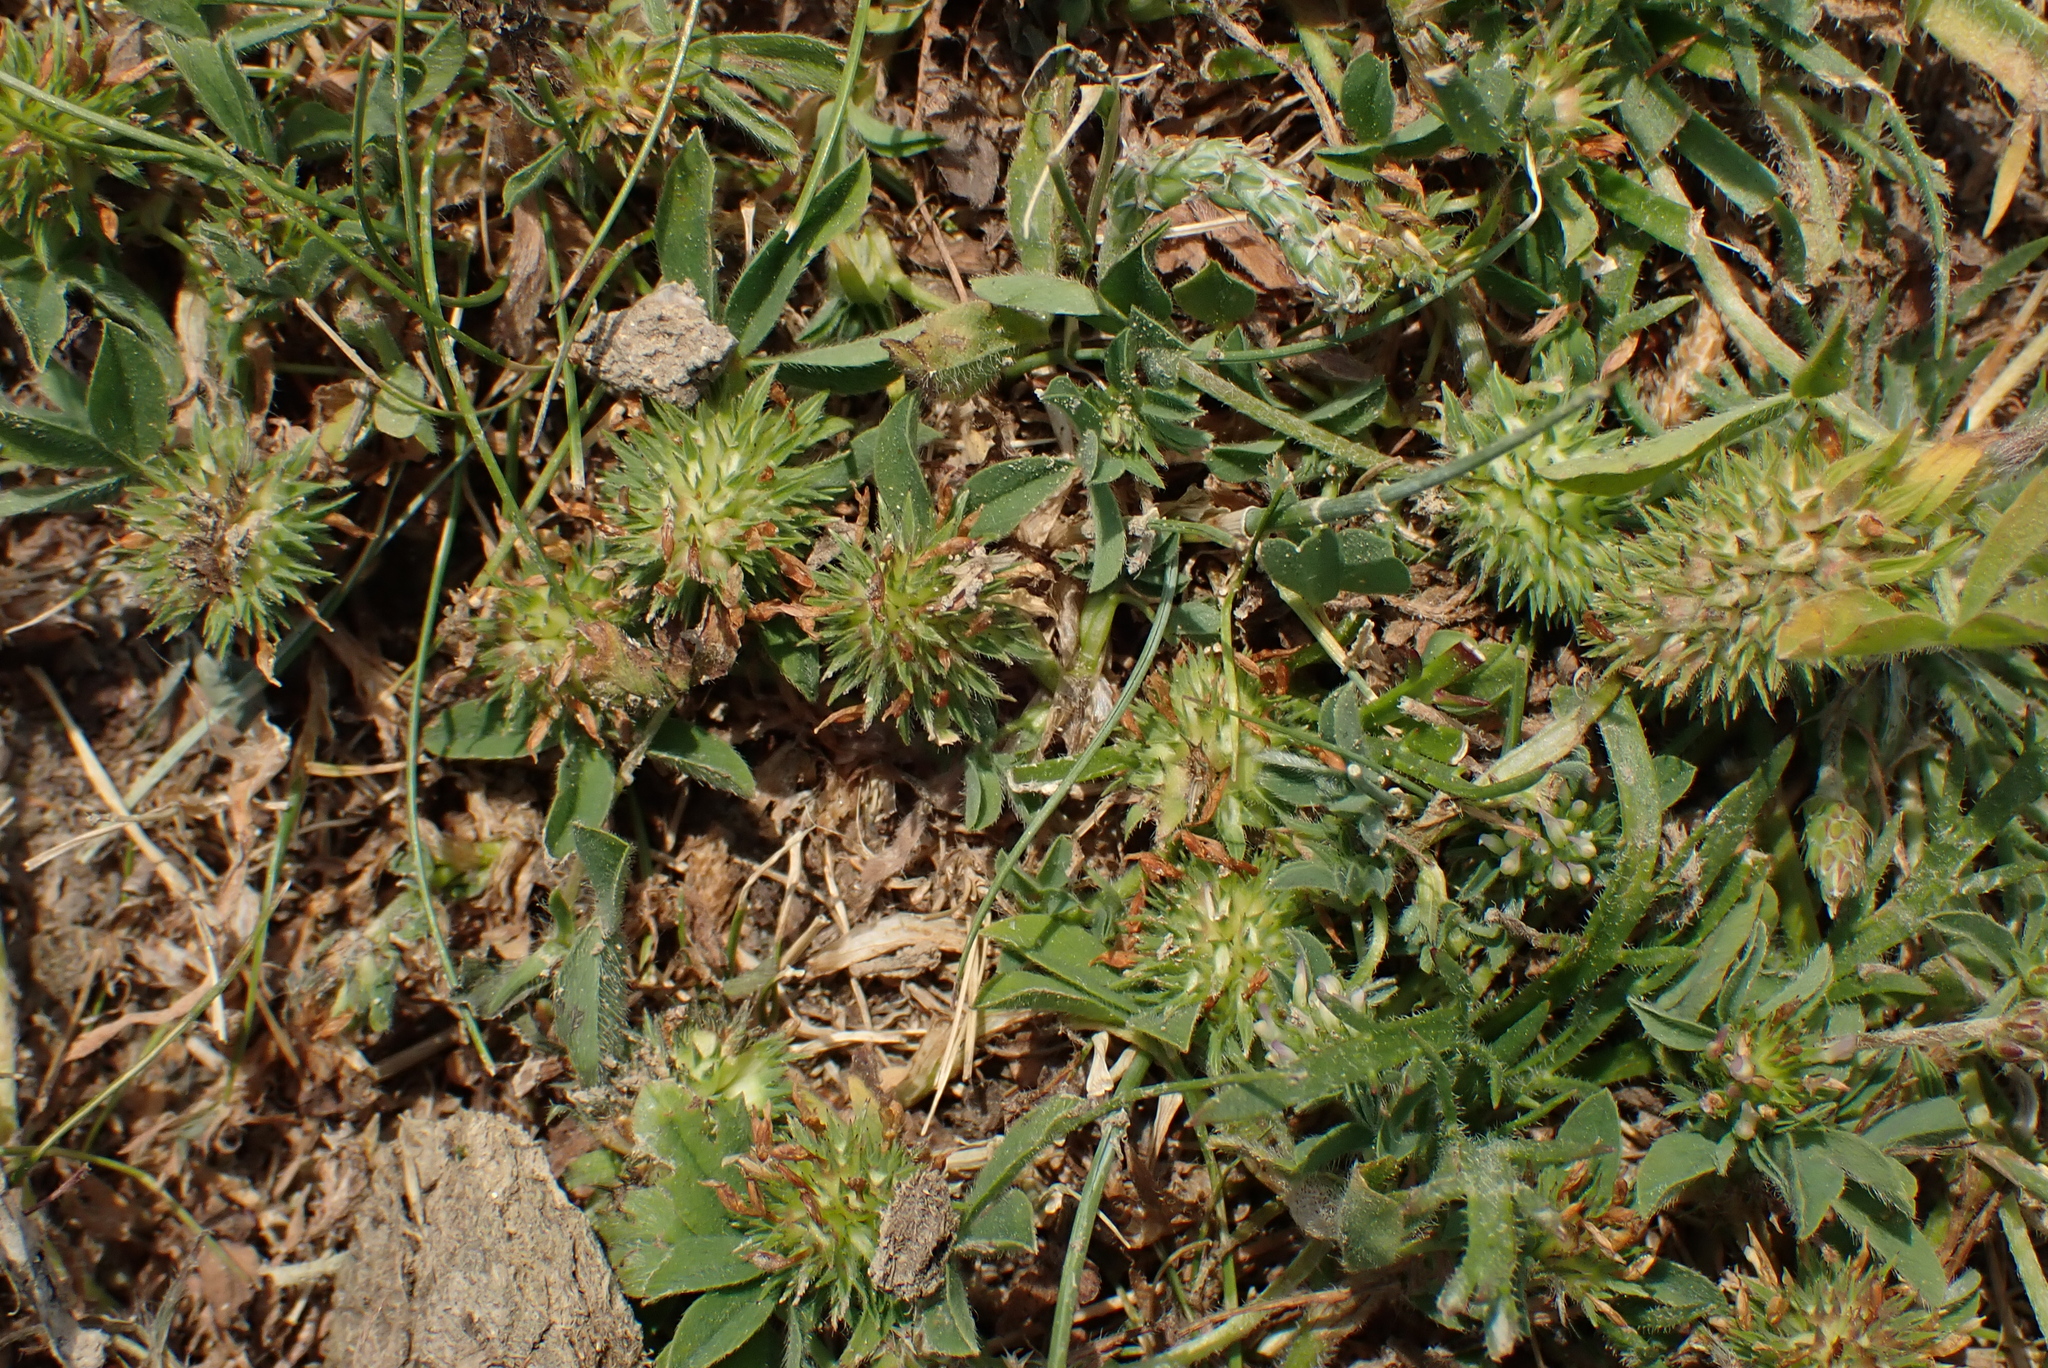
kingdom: Plantae
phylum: Tracheophyta
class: Magnoliopsida
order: Fabales
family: Fabaceae
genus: Trifolium
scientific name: Trifolium squamosum
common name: Sea clover
